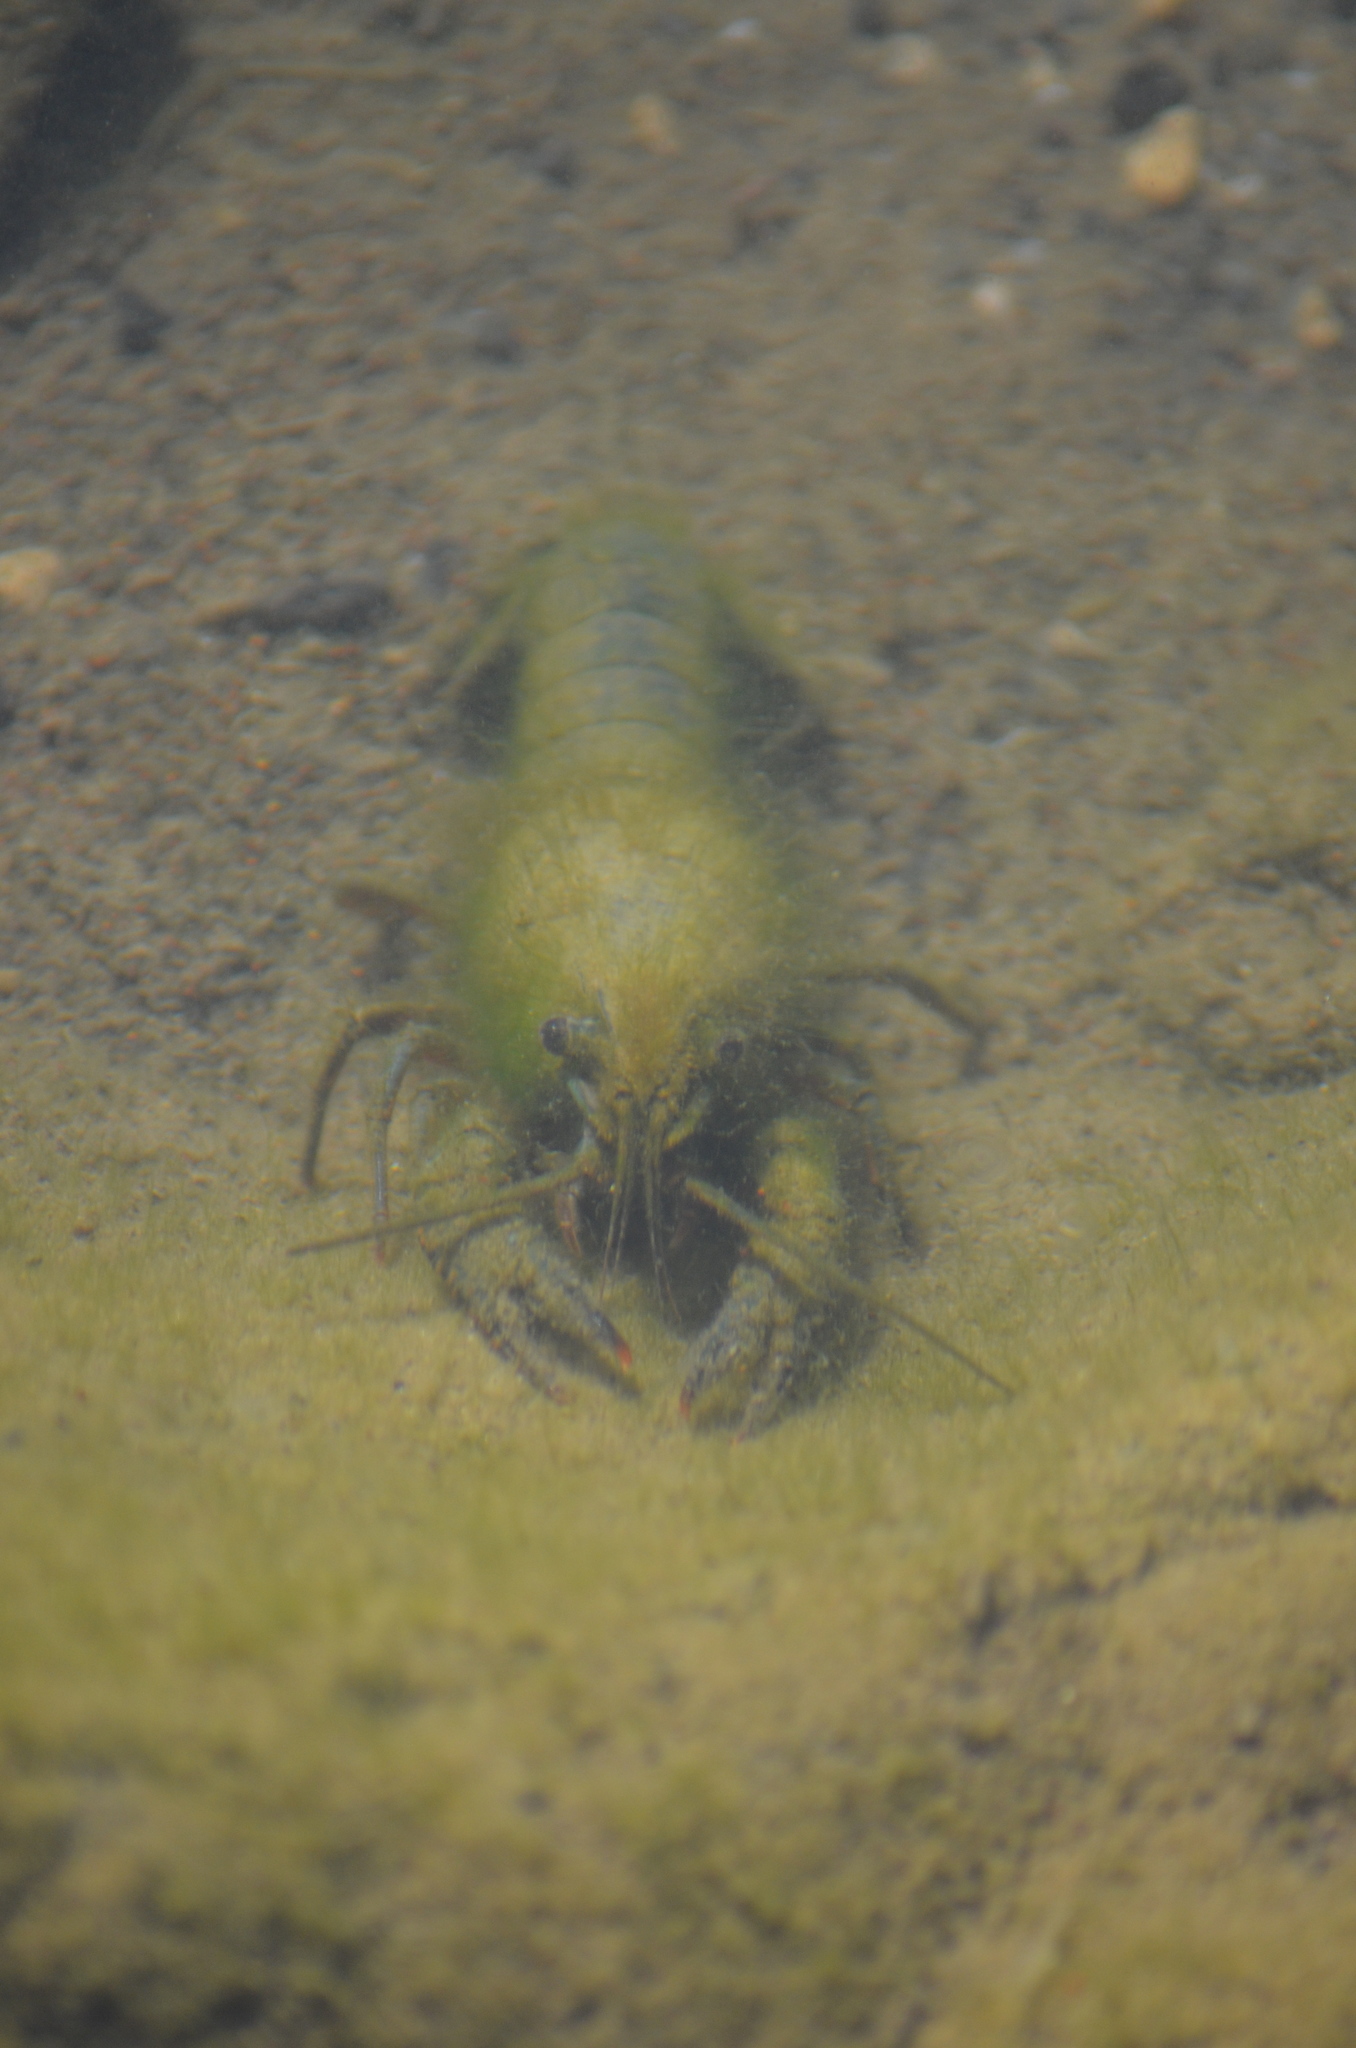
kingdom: Animalia
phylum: Arthropoda
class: Malacostraca
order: Decapoda
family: Cambaridae
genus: Procambarus
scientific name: Procambarus clarkii
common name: Red swamp crayfish
